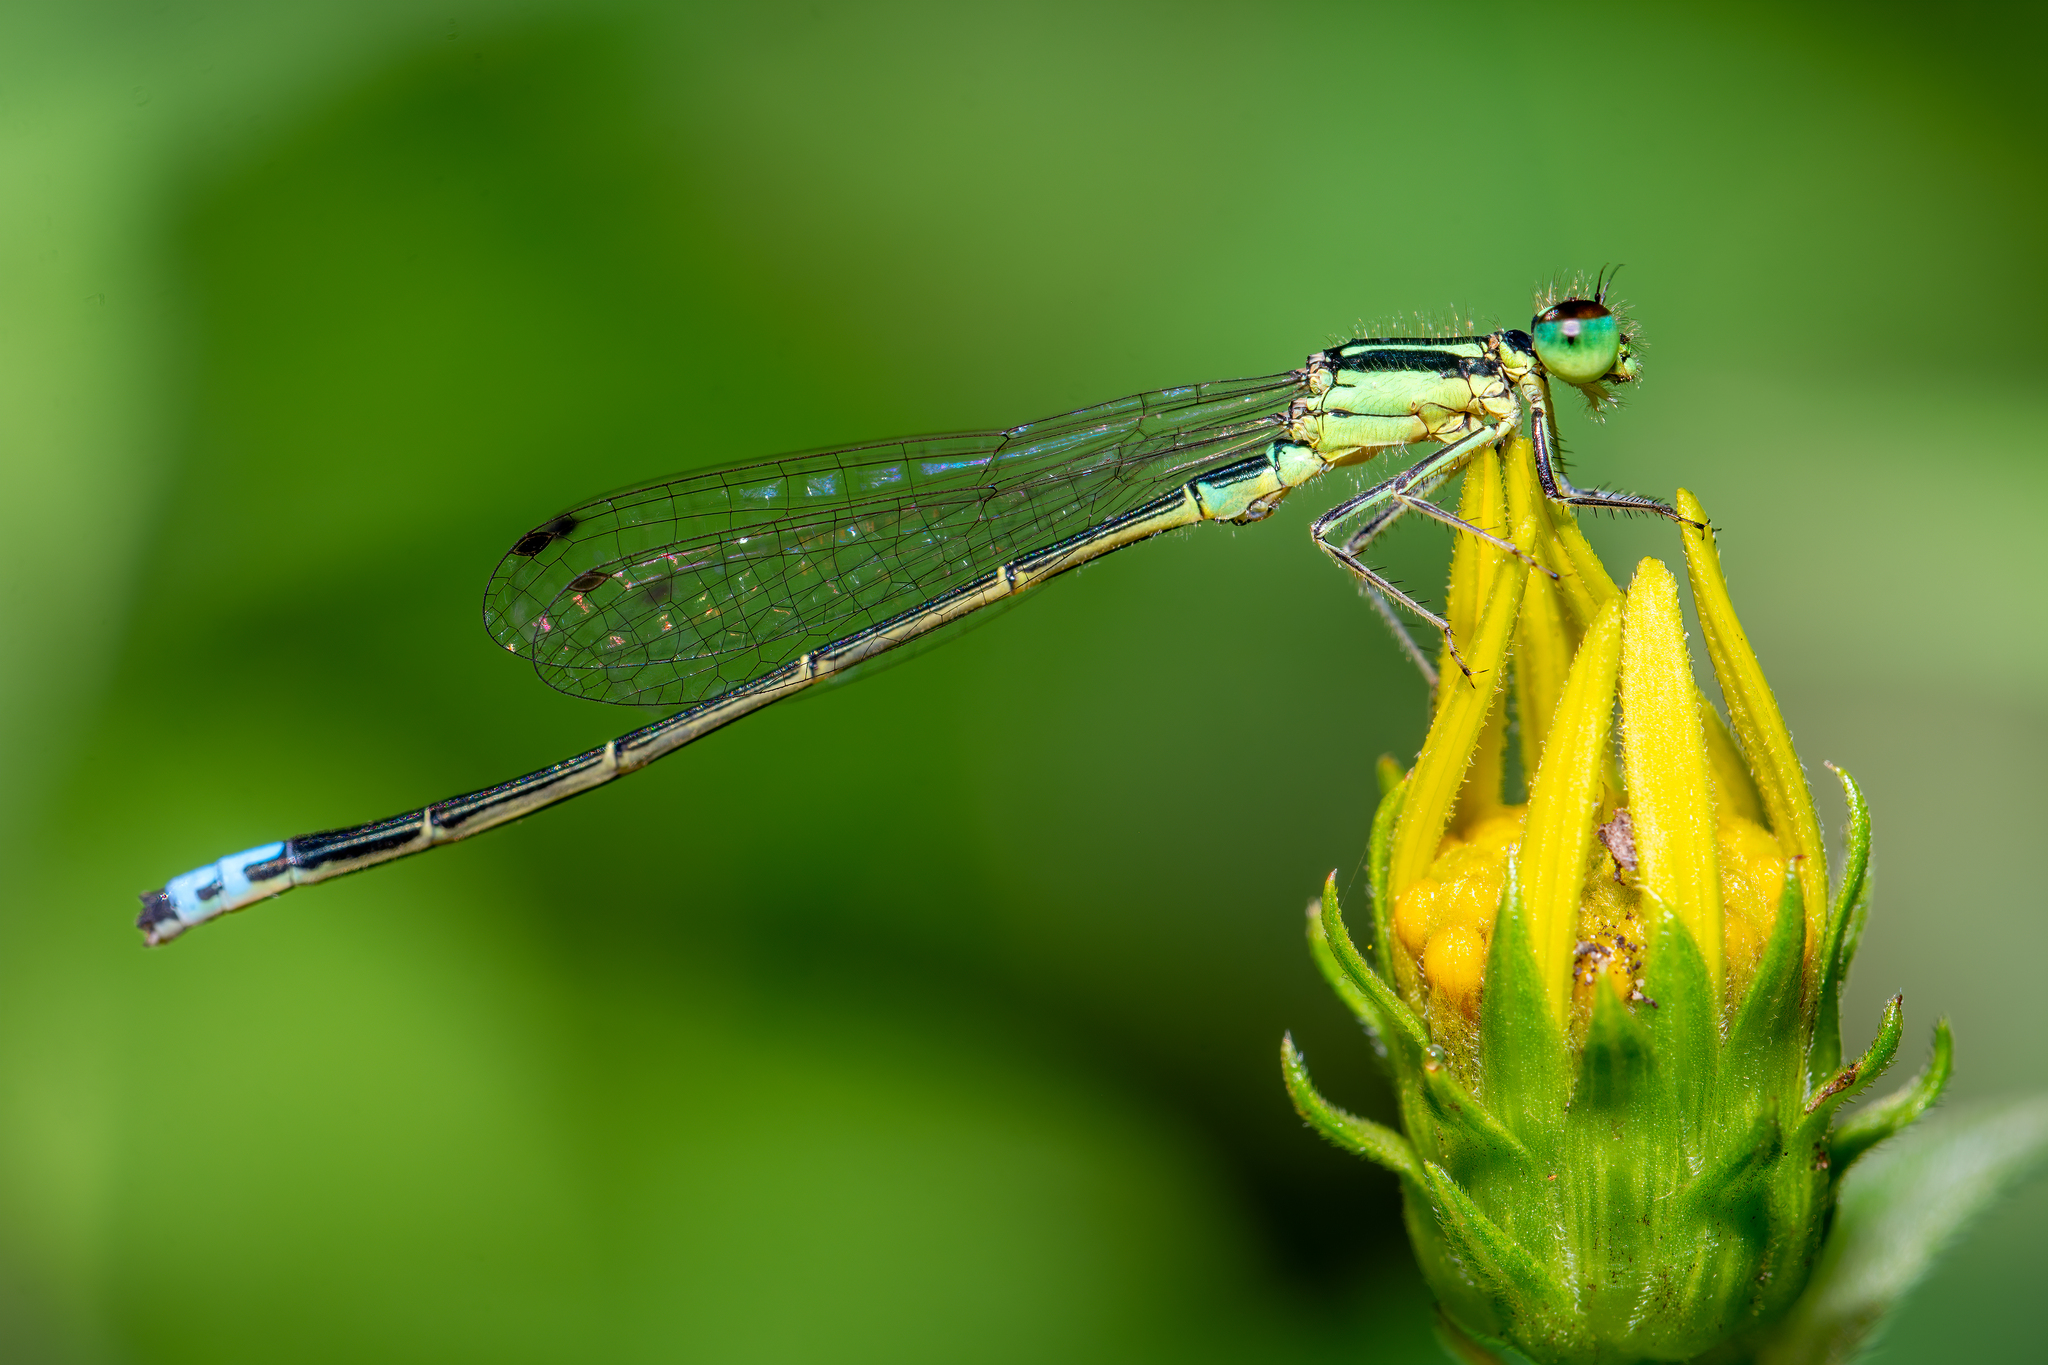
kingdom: Animalia
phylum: Arthropoda
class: Insecta
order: Odonata
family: Coenagrionidae
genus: Ischnura
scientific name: Ischnura verticalis
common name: Eastern forktail
